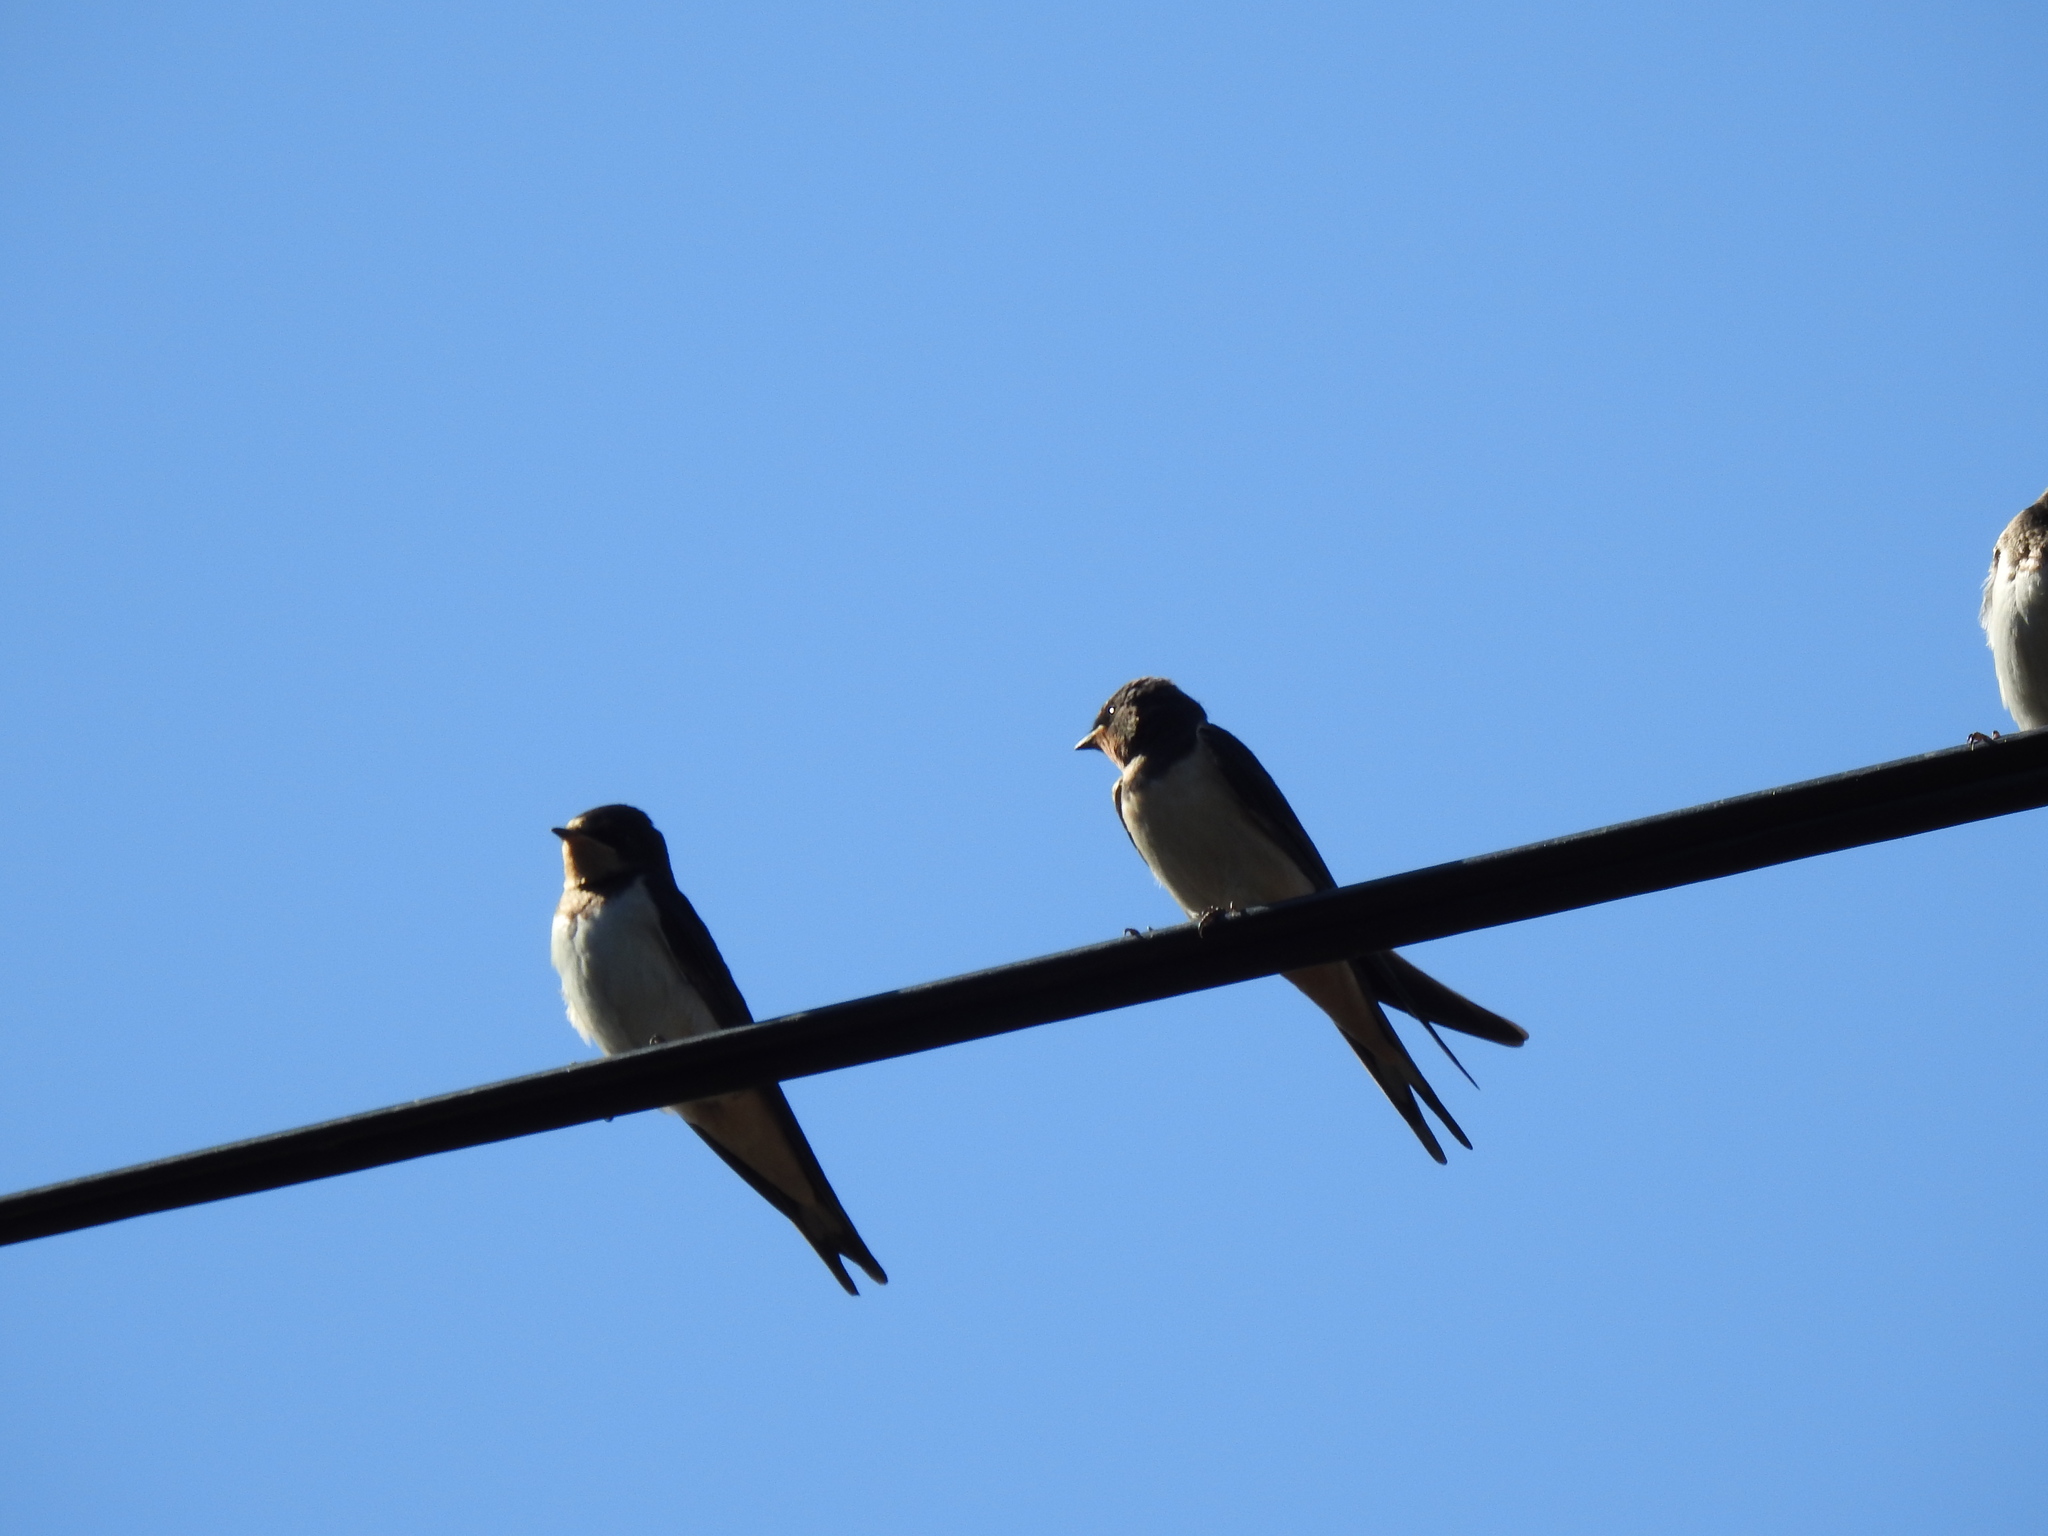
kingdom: Animalia
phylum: Chordata
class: Aves
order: Passeriformes
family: Hirundinidae
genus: Hirundo
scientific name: Hirundo rustica
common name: Barn swallow
